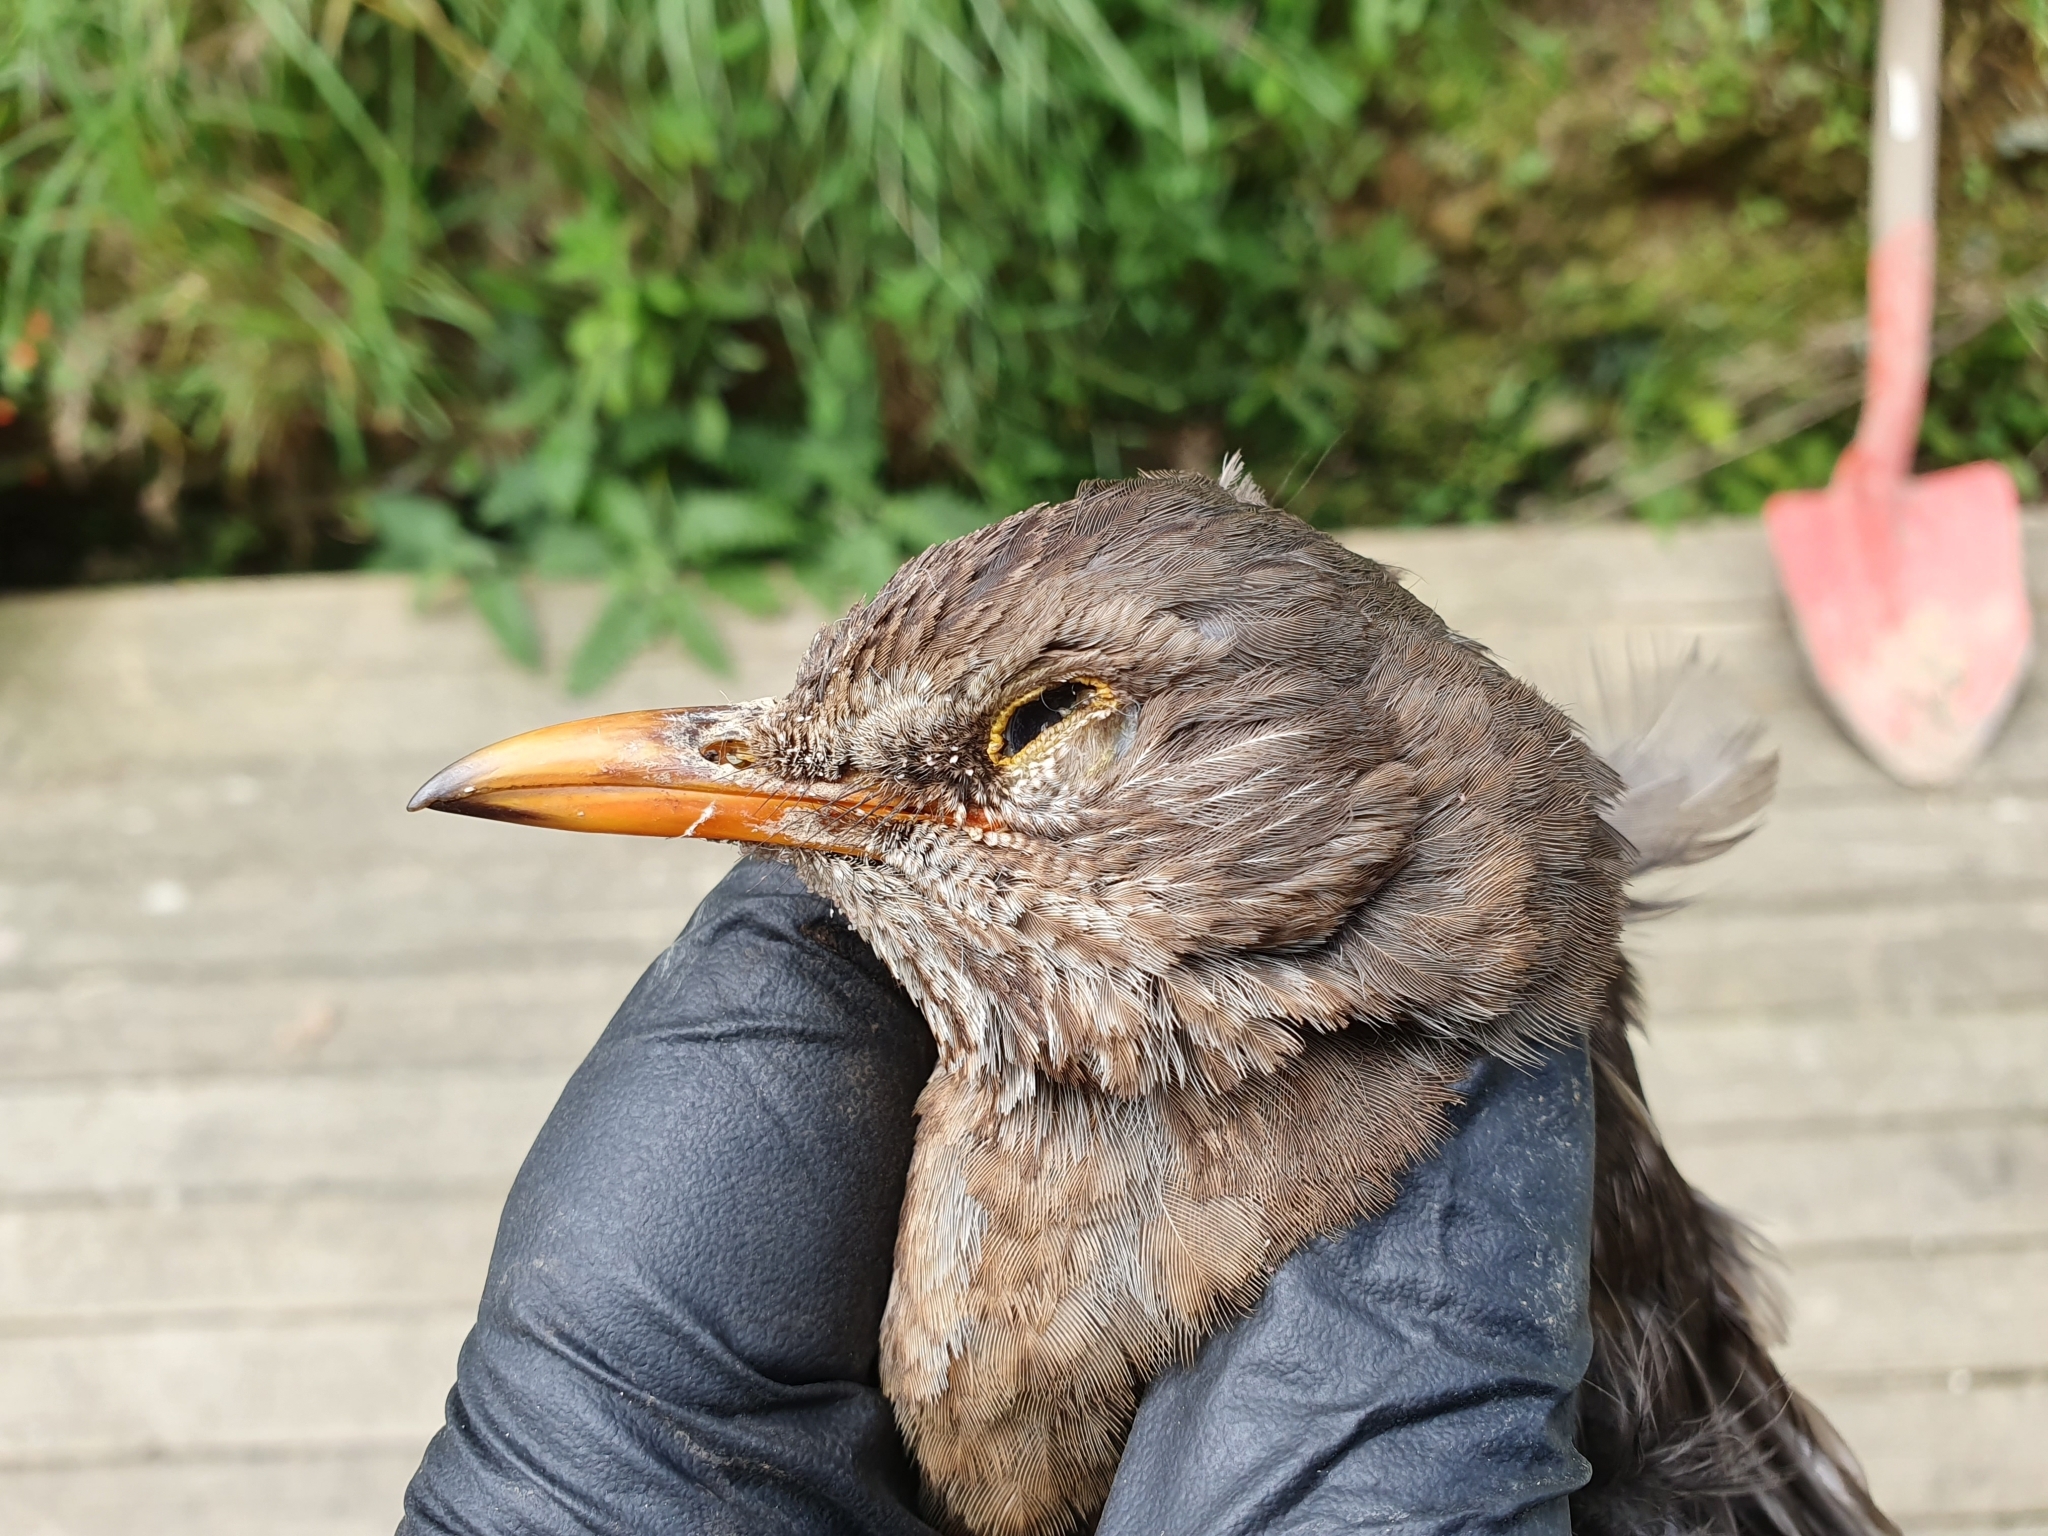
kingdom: Animalia
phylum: Chordata
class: Aves
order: Passeriformes
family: Turdidae
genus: Turdus
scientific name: Turdus merula
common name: Common blackbird
